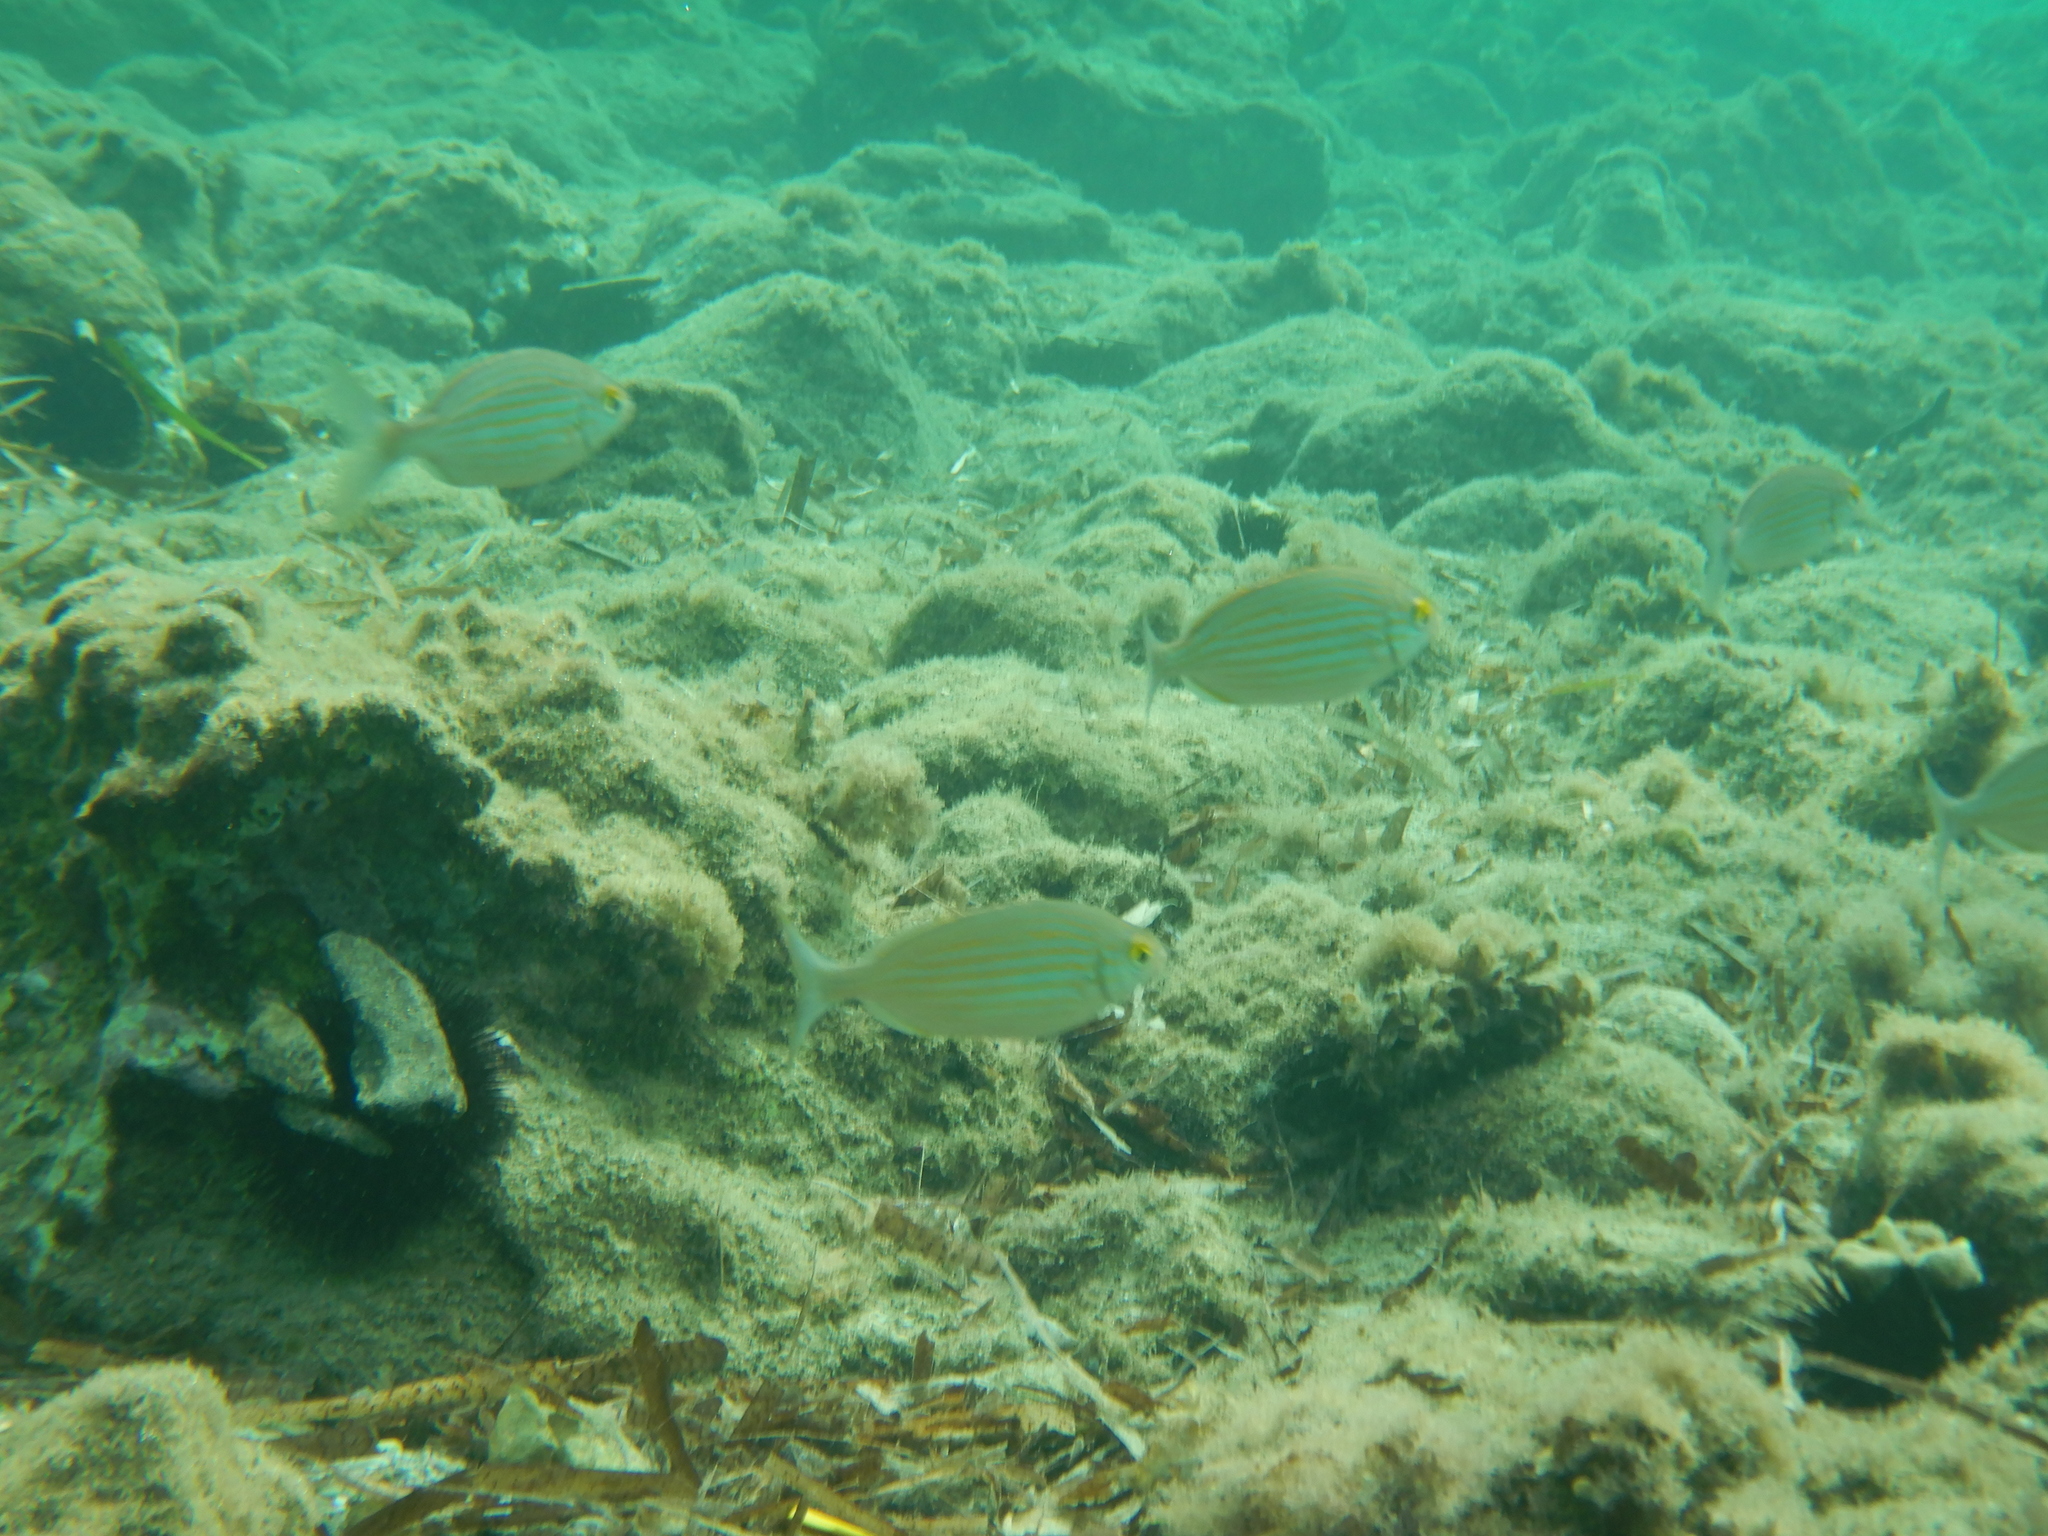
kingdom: Animalia
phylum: Chordata
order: Perciformes
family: Sparidae
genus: Sarpa
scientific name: Sarpa salpa
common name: Salema
